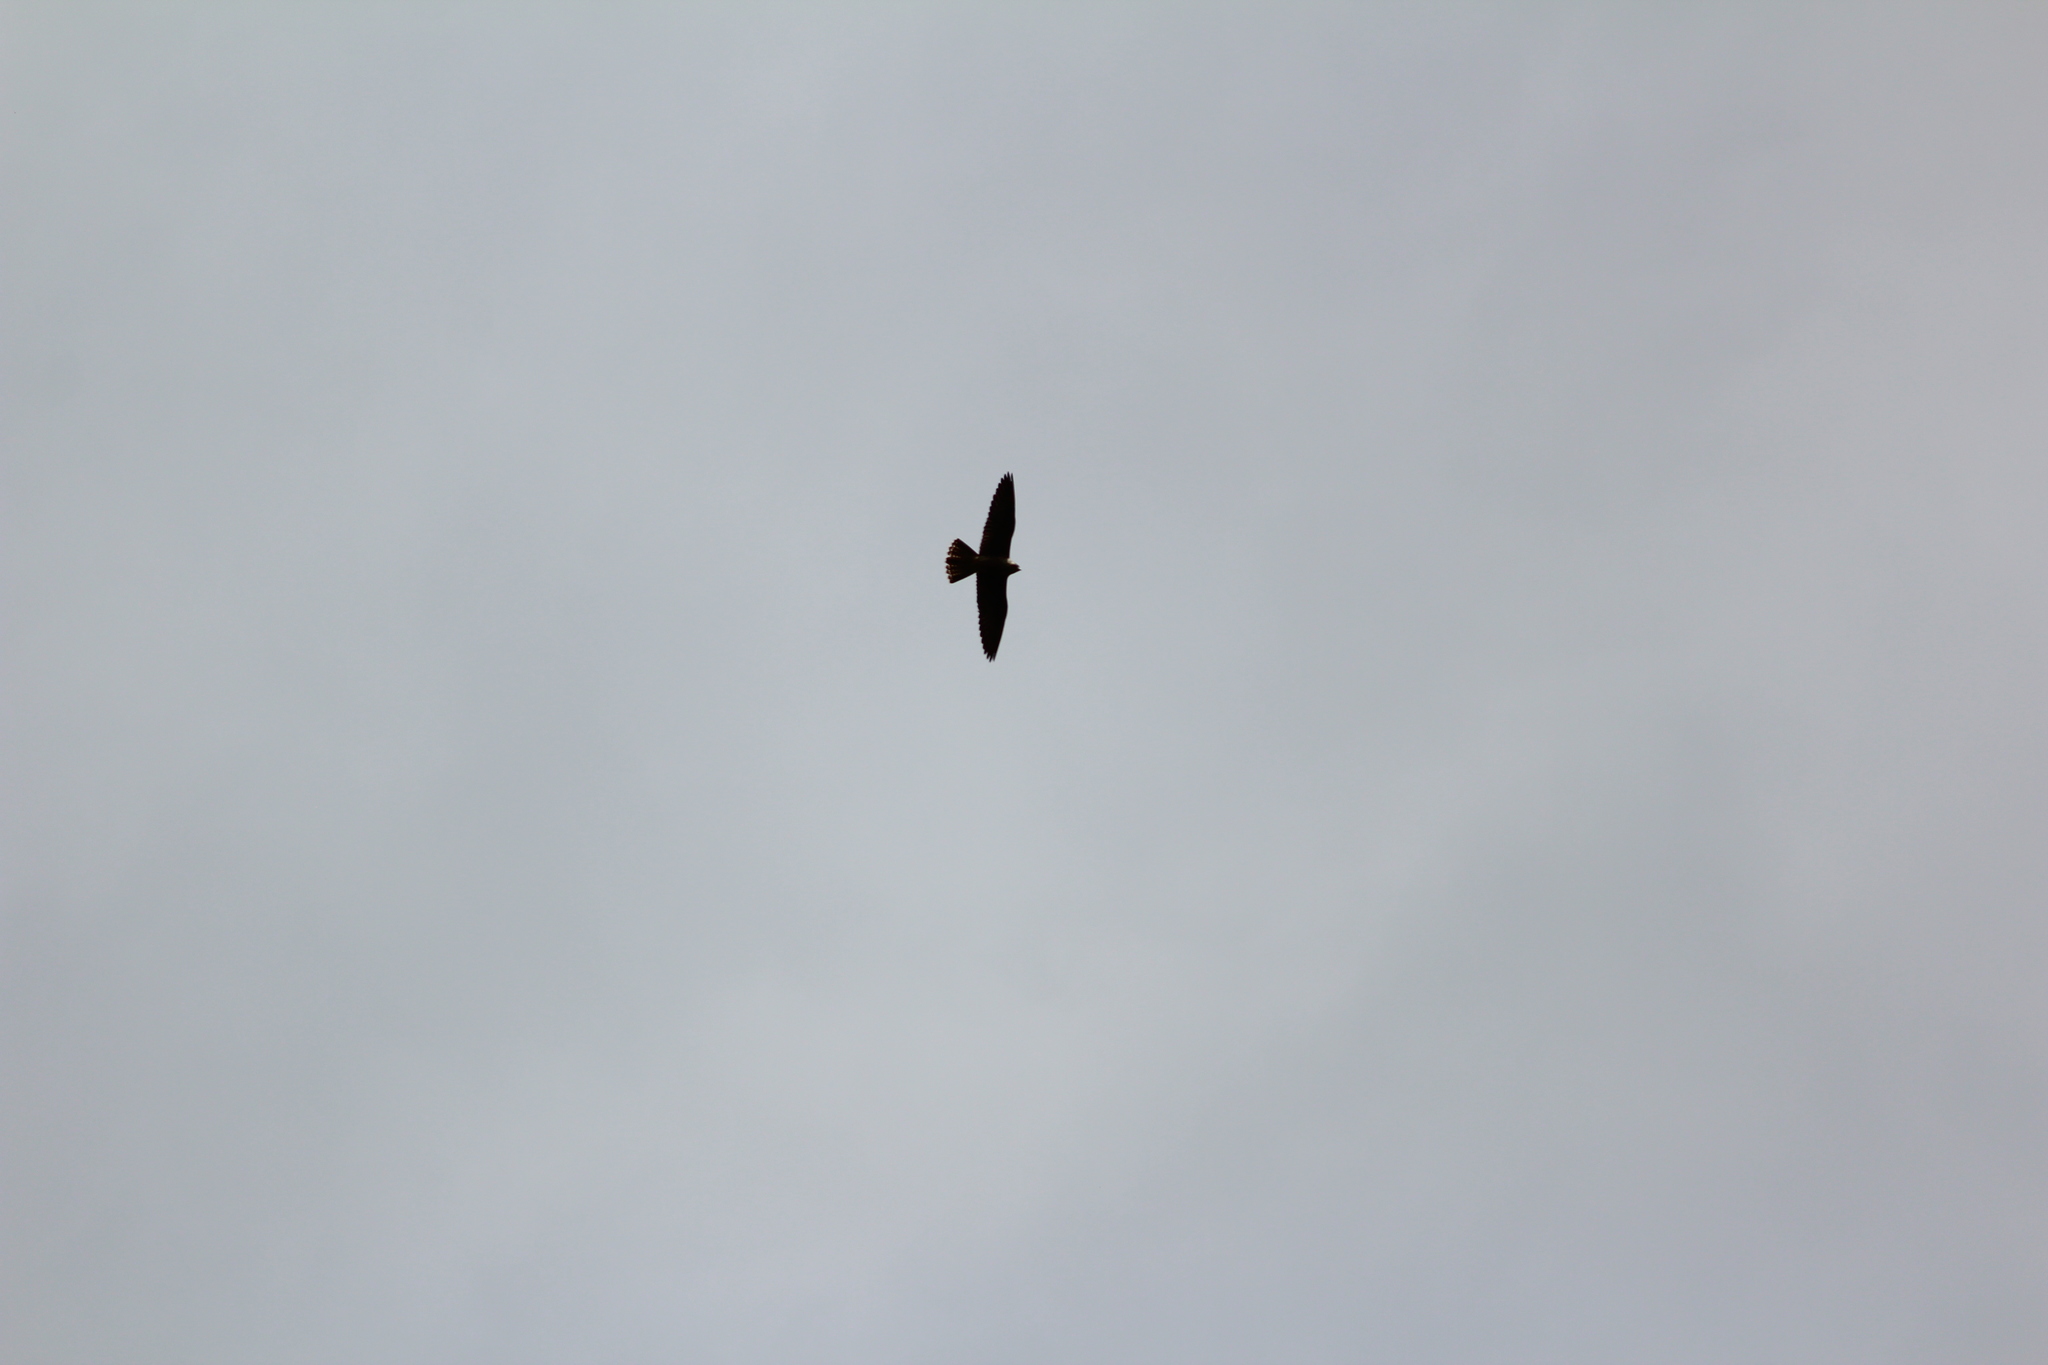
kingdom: Animalia
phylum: Chordata
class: Aves
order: Falconiformes
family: Falconidae
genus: Falco
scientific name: Falco peregrinus
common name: Peregrine falcon
